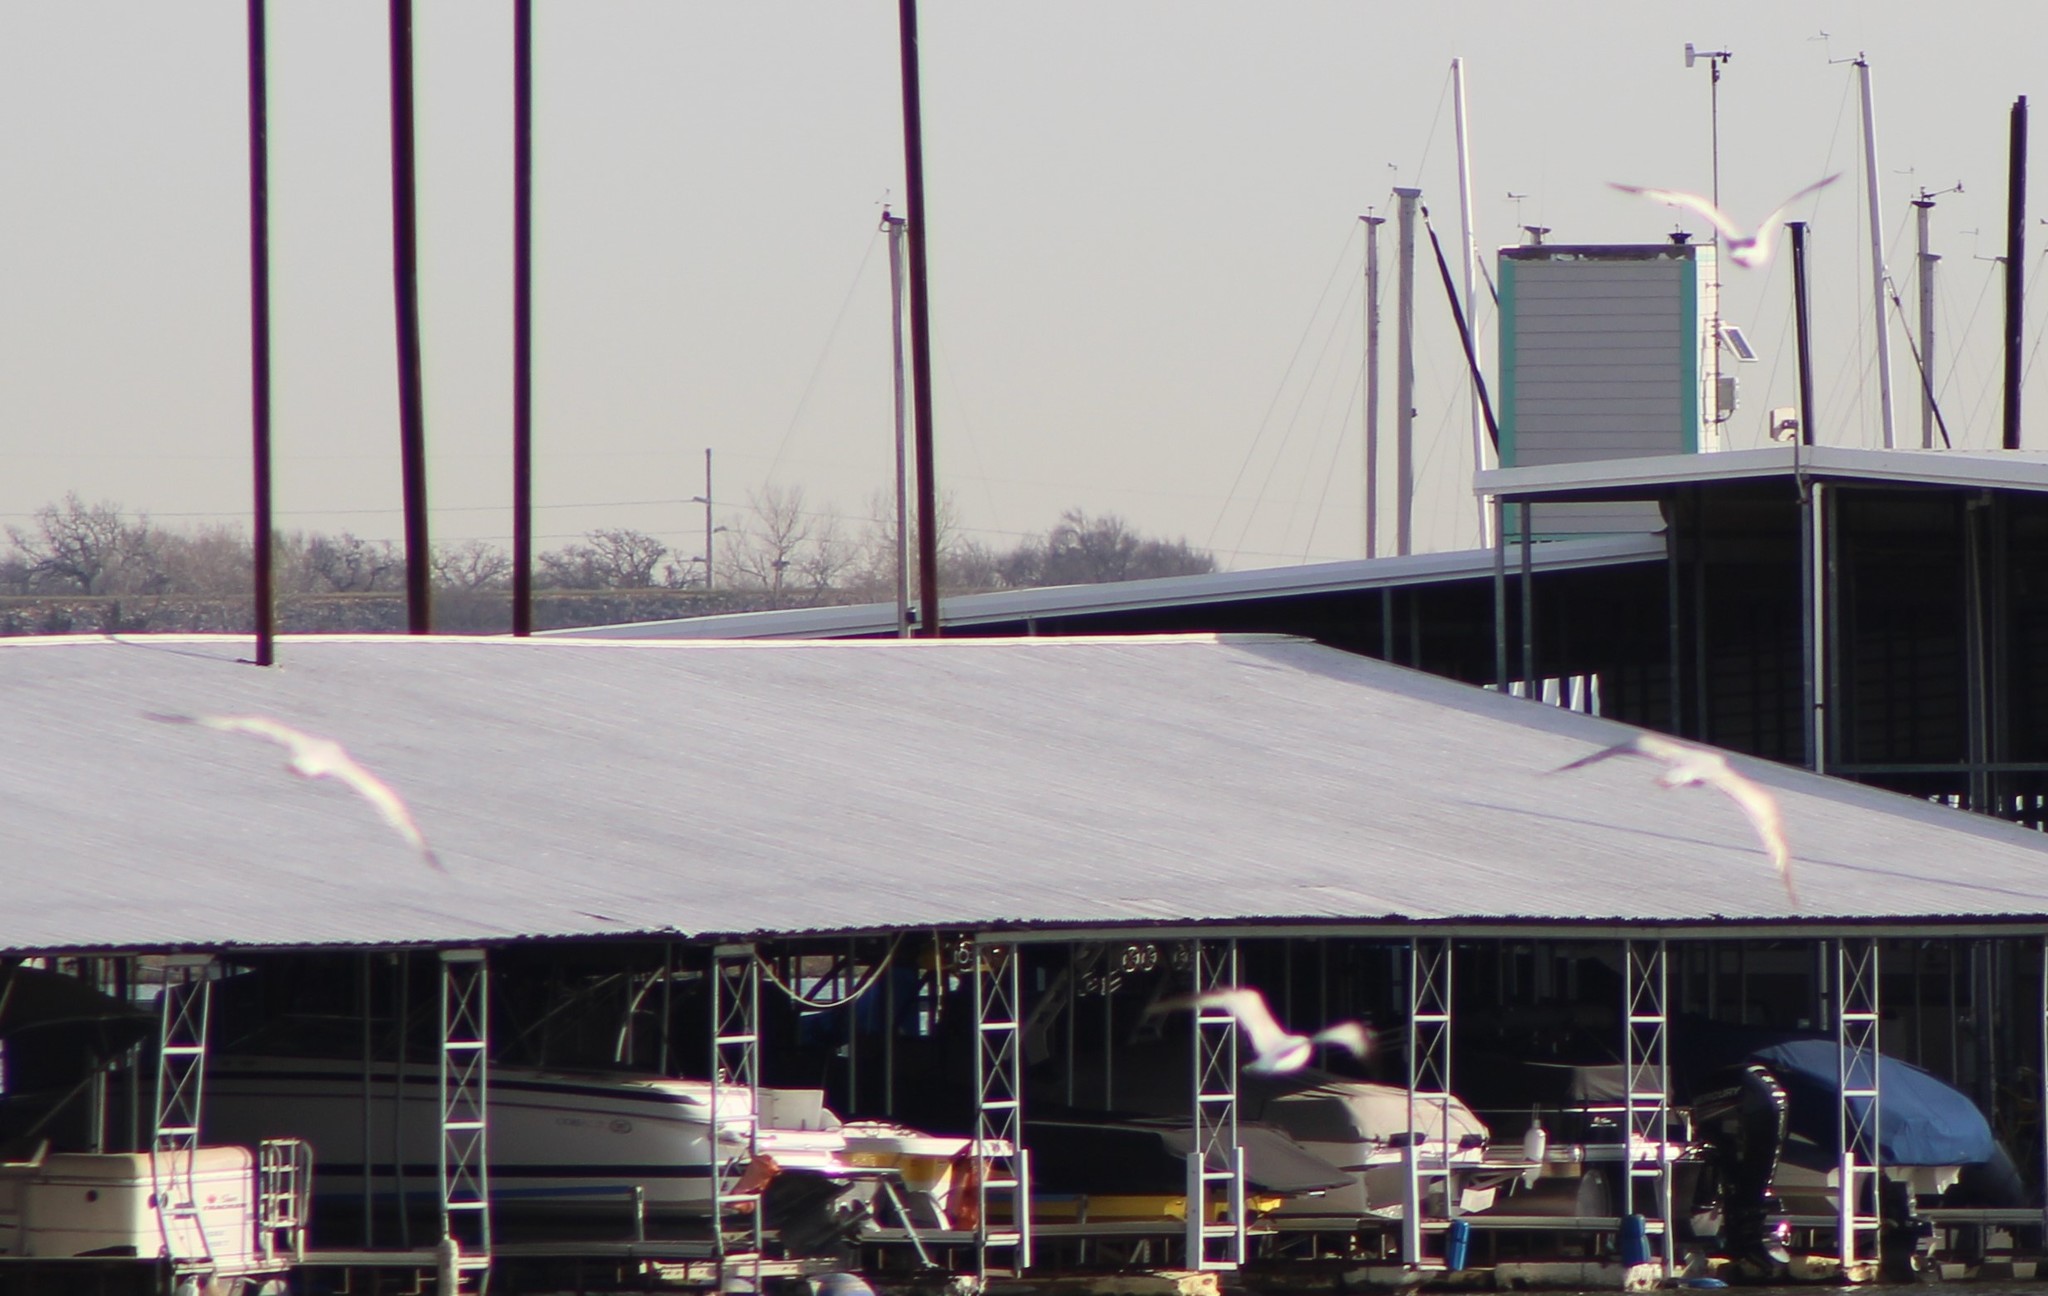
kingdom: Animalia
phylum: Chordata
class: Aves
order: Charadriiformes
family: Laridae
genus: Larus
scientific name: Larus delawarensis
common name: Ring-billed gull
